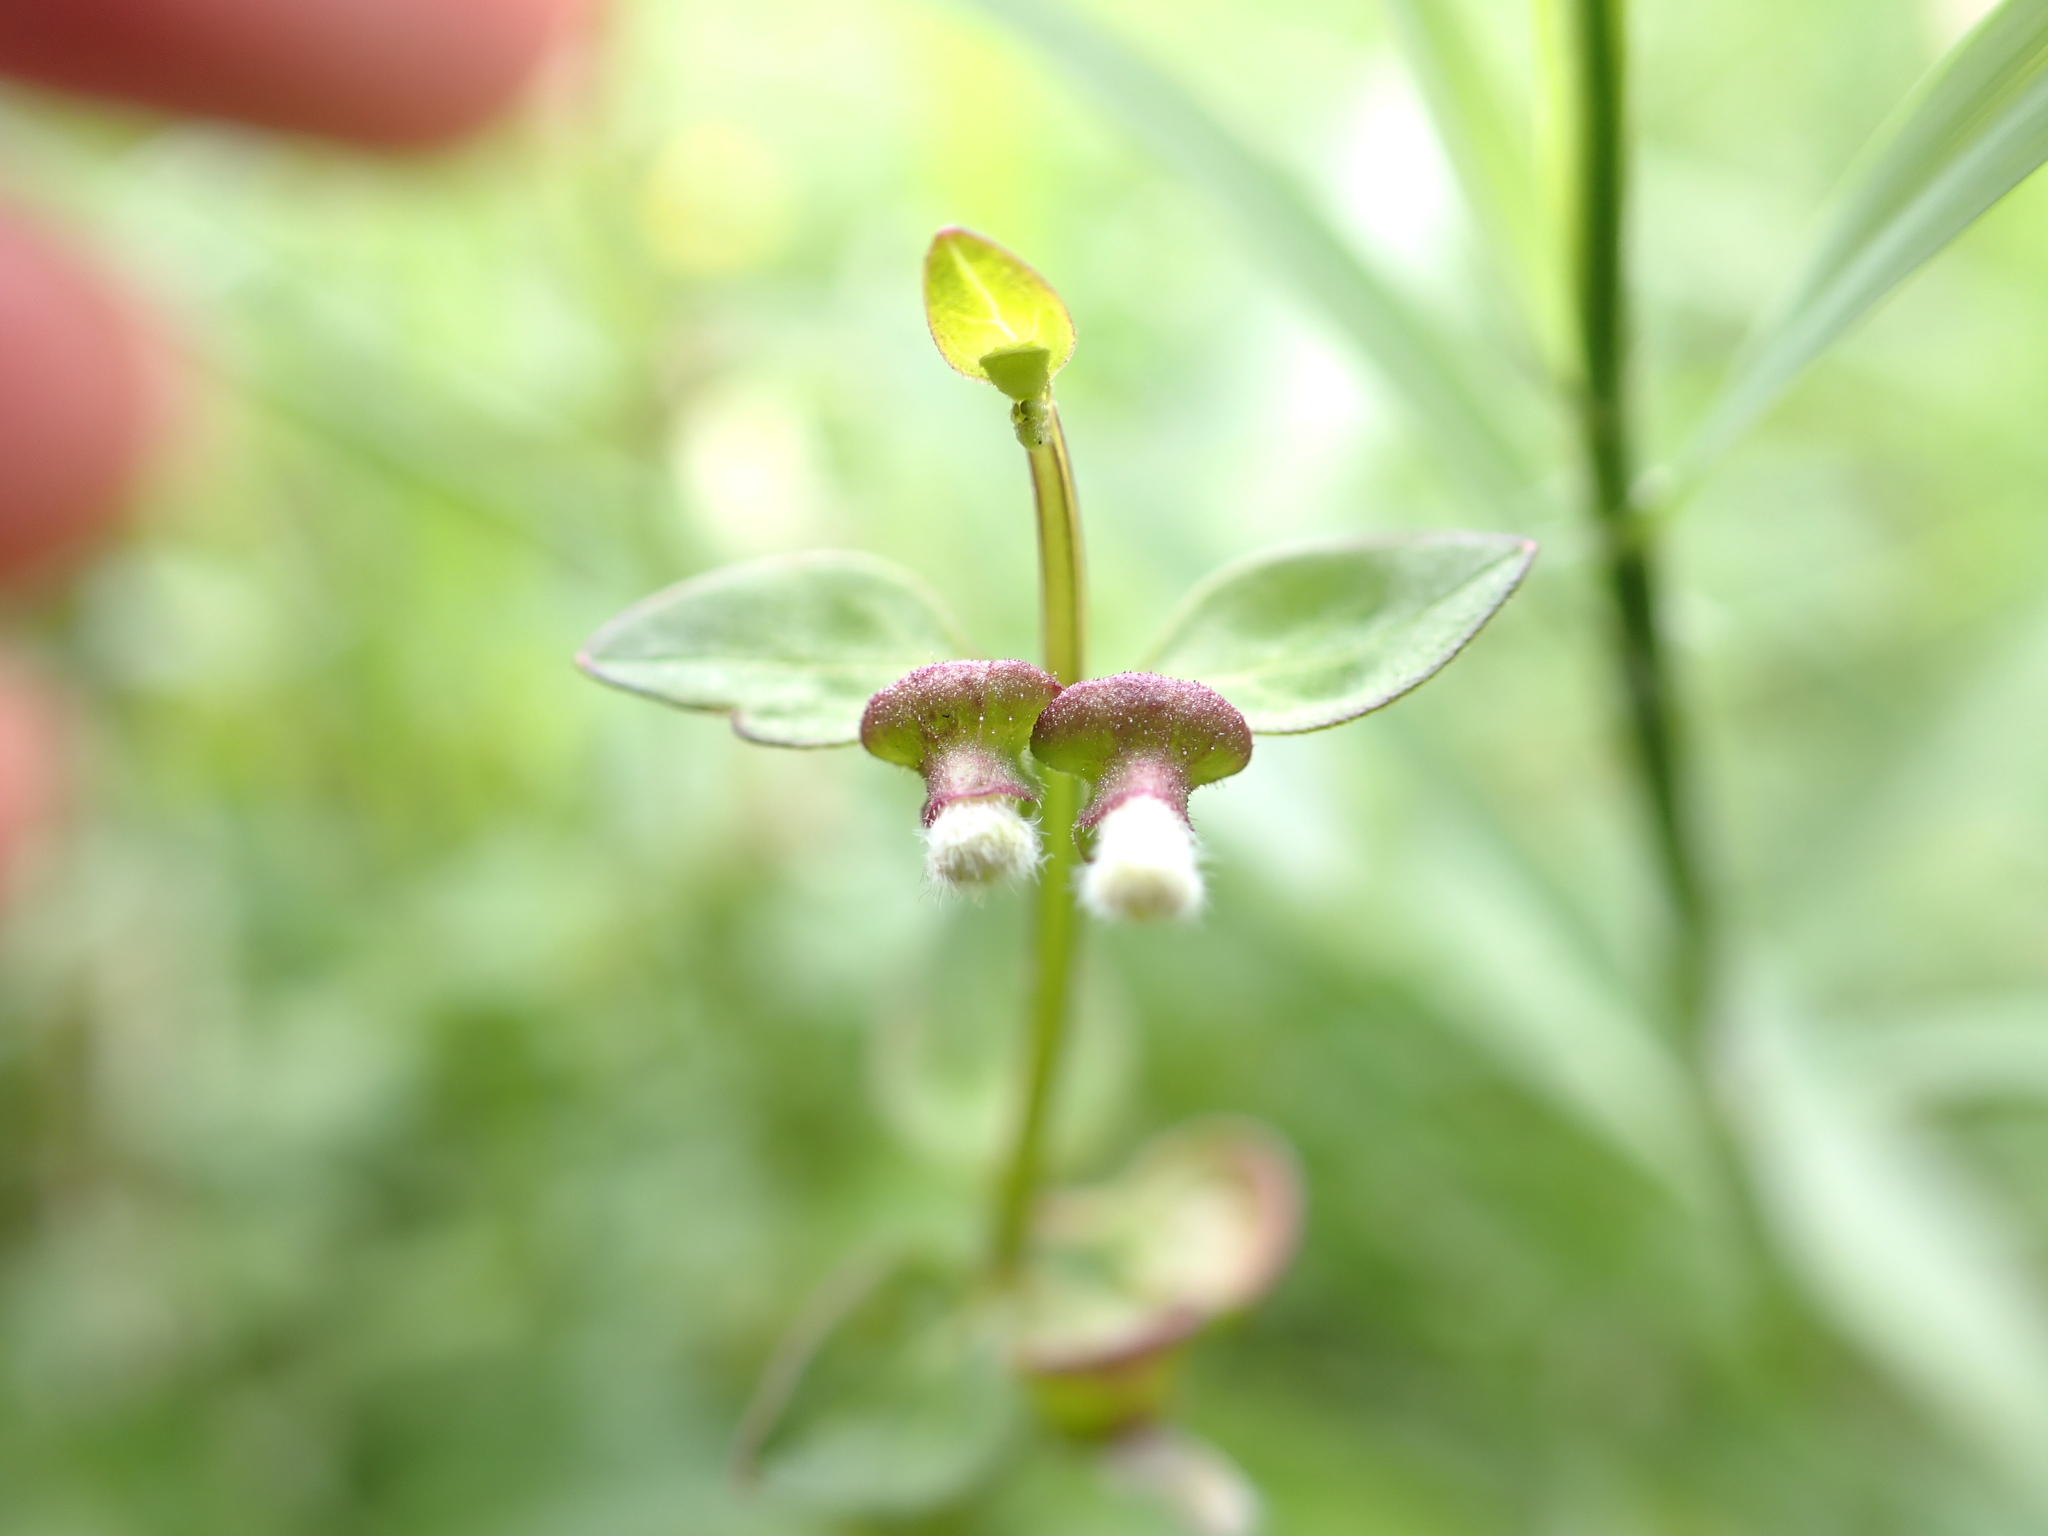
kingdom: Plantae
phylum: Tracheophyta
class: Magnoliopsida
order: Lamiales
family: Lamiaceae
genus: Scutellaria
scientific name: Scutellaria barbata
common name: Barbed skullcap
